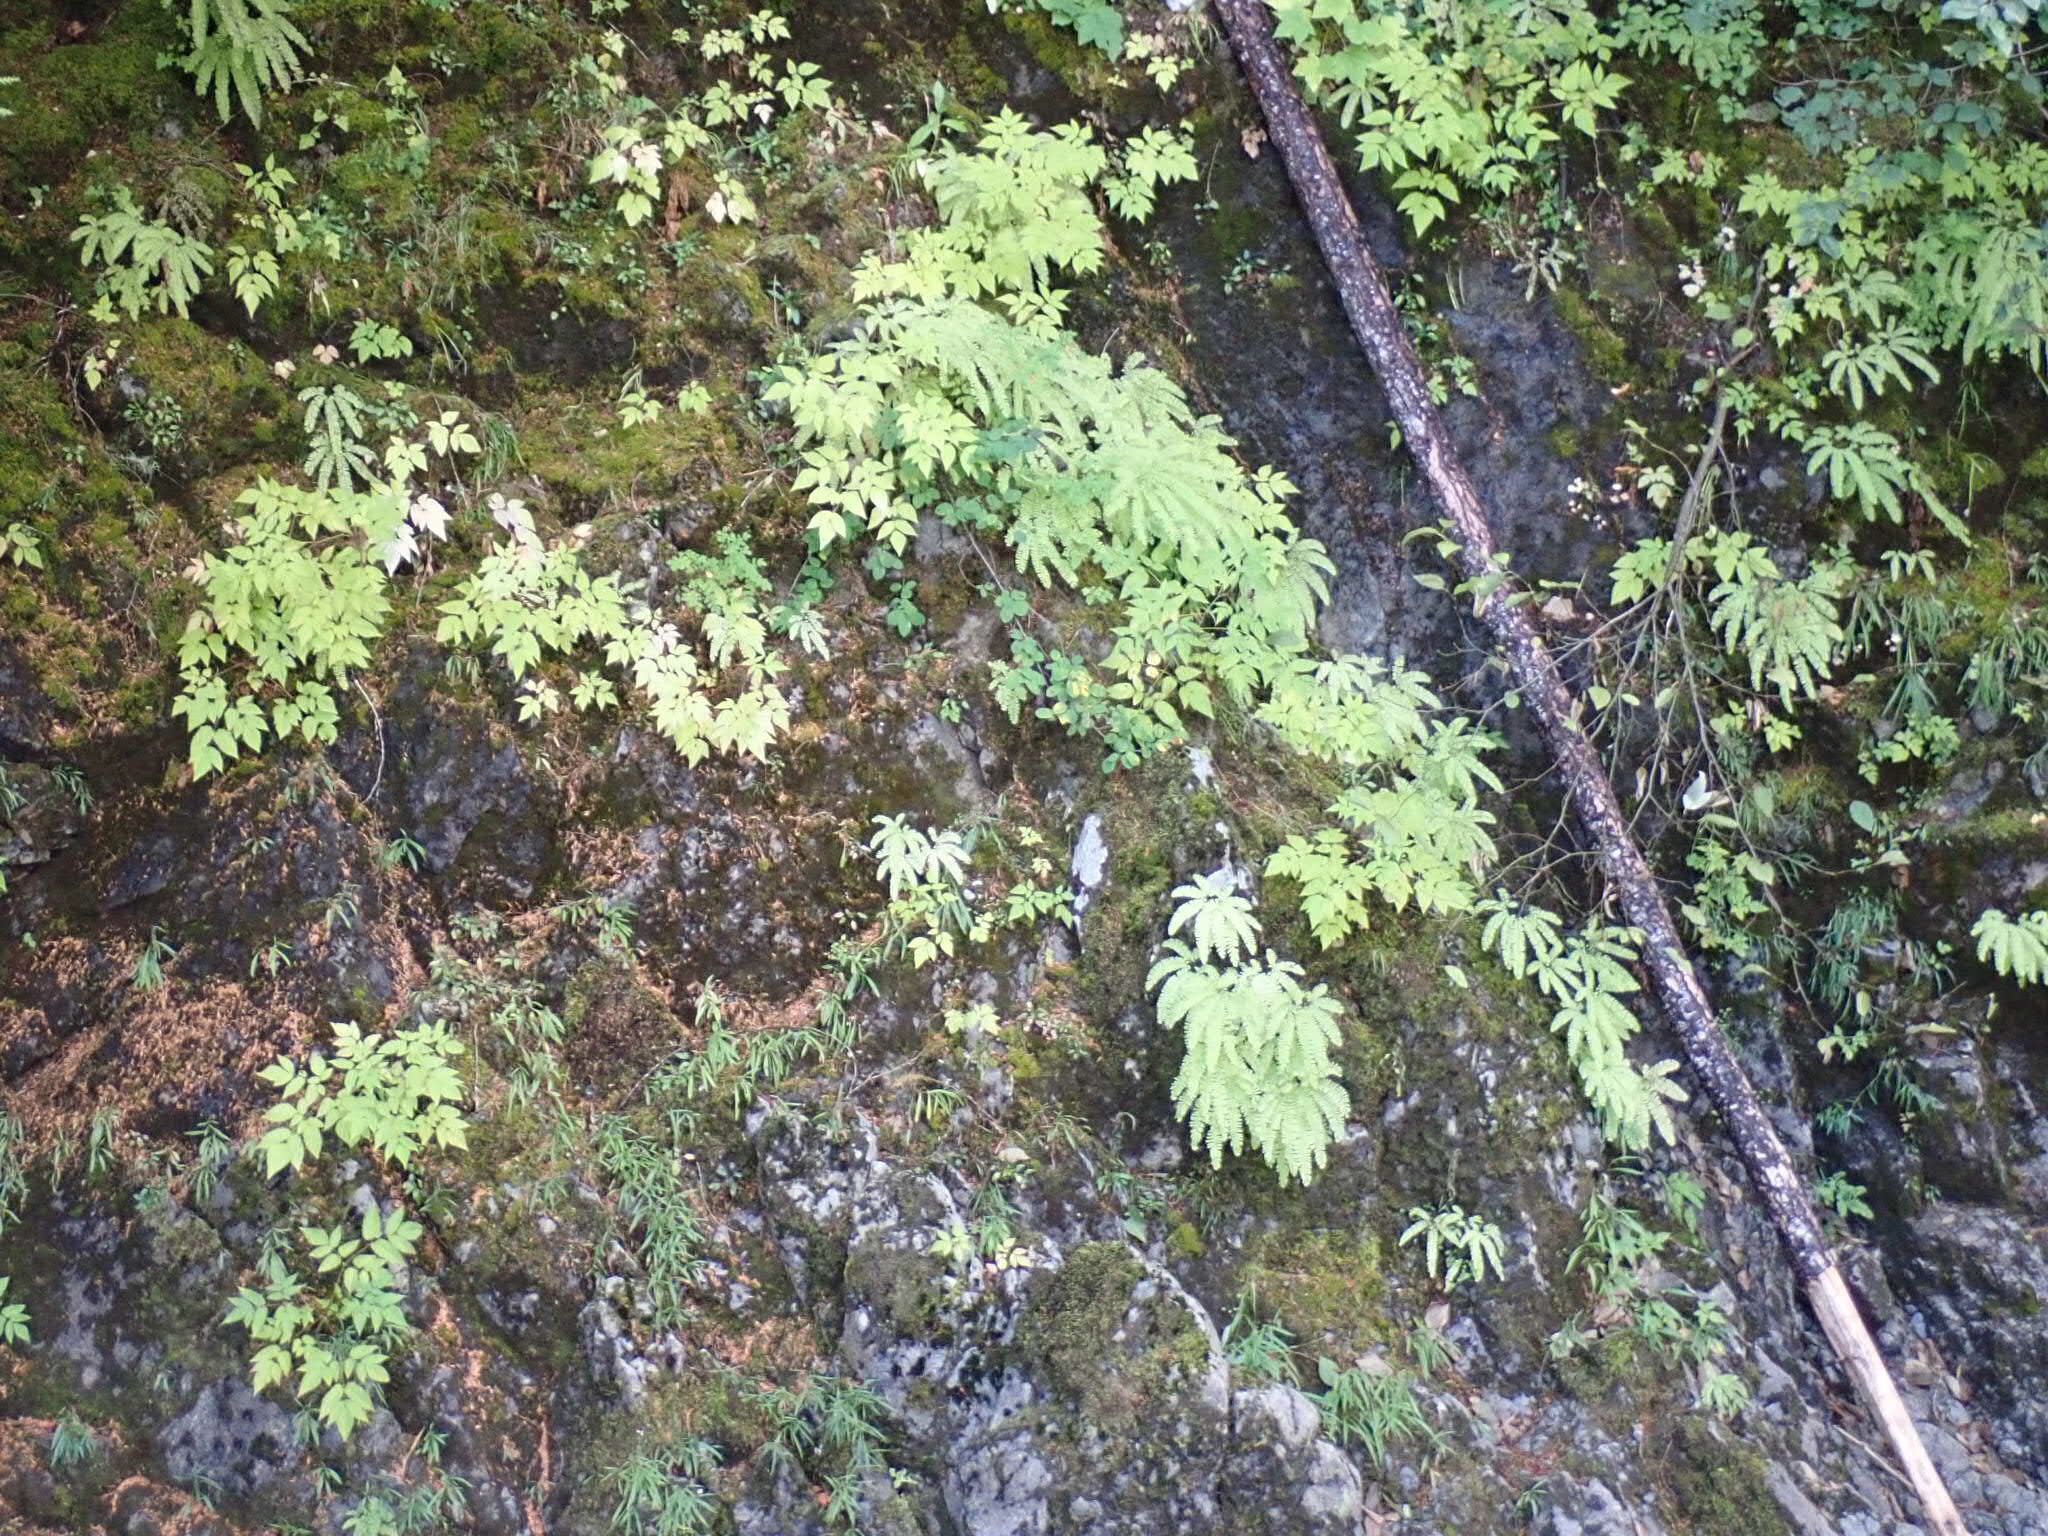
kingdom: Plantae
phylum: Tracheophyta
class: Polypodiopsida
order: Polypodiales
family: Pteridaceae
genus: Adiantum
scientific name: Adiantum aleuticum
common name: Aleutian maidenhair fern
